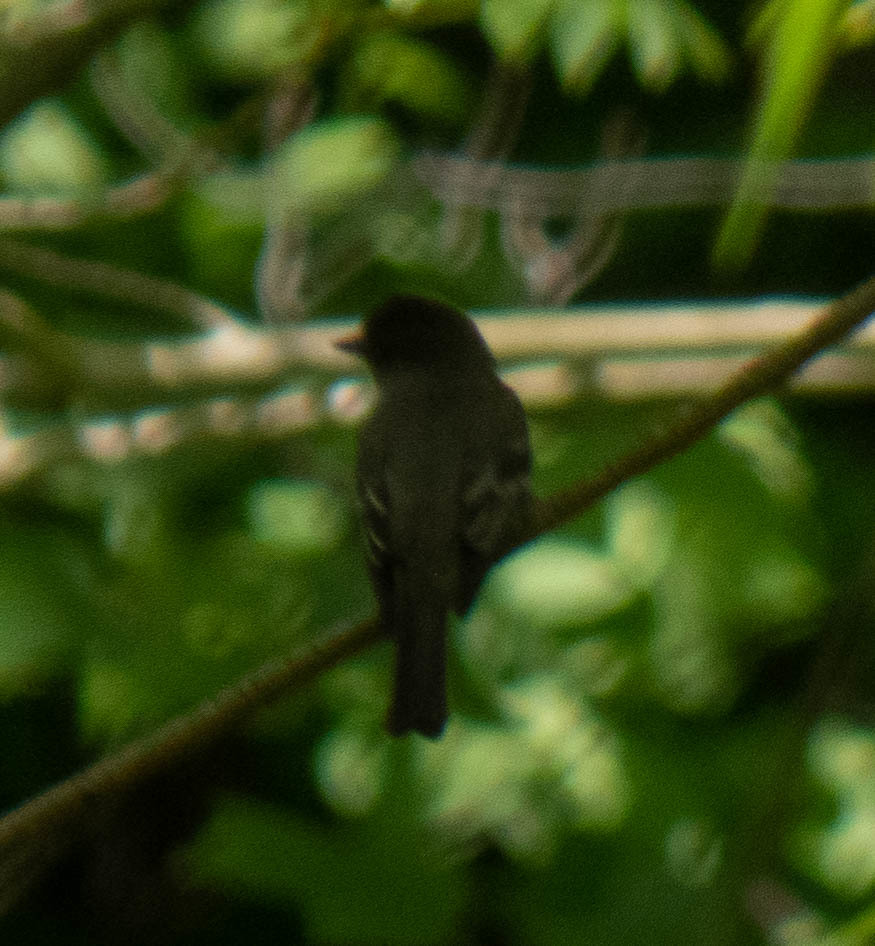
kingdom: Animalia
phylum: Chordata
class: Aves
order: Passeriformes
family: Tyrannidae
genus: Contopus
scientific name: Contopus virens
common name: Eastern wood-pewee
